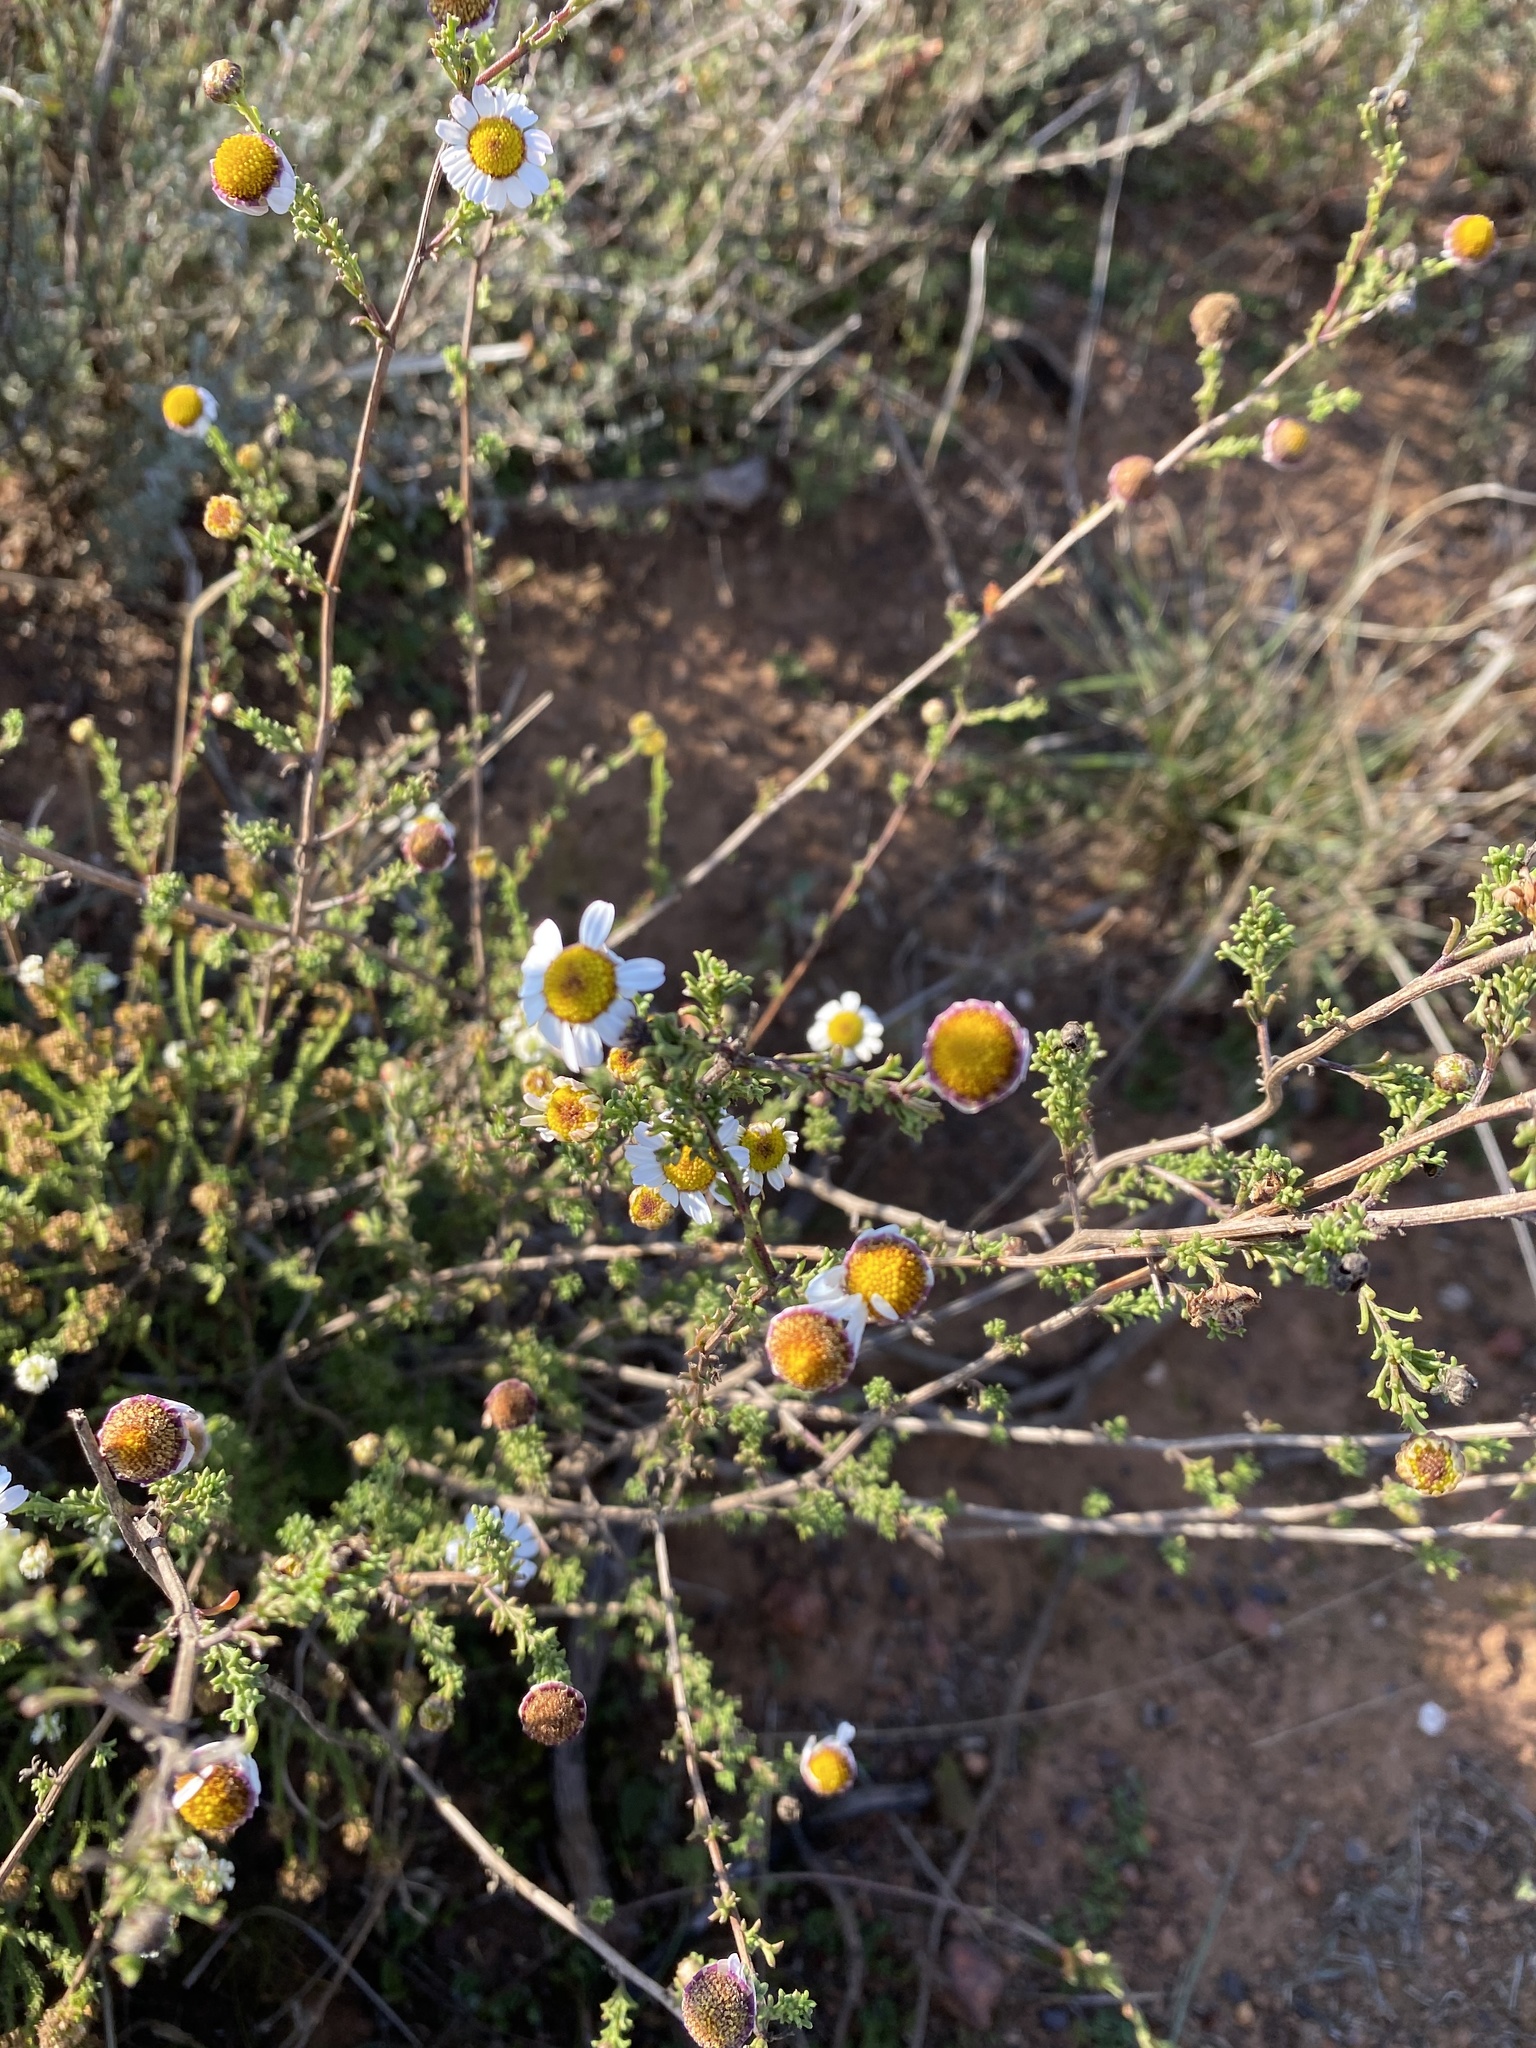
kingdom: Plantae
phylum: Tracheophyta
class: Magnoliopsida
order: Asterales
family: Asteraceae
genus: Cymbopappus
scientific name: Cymbopappus adenosolen
